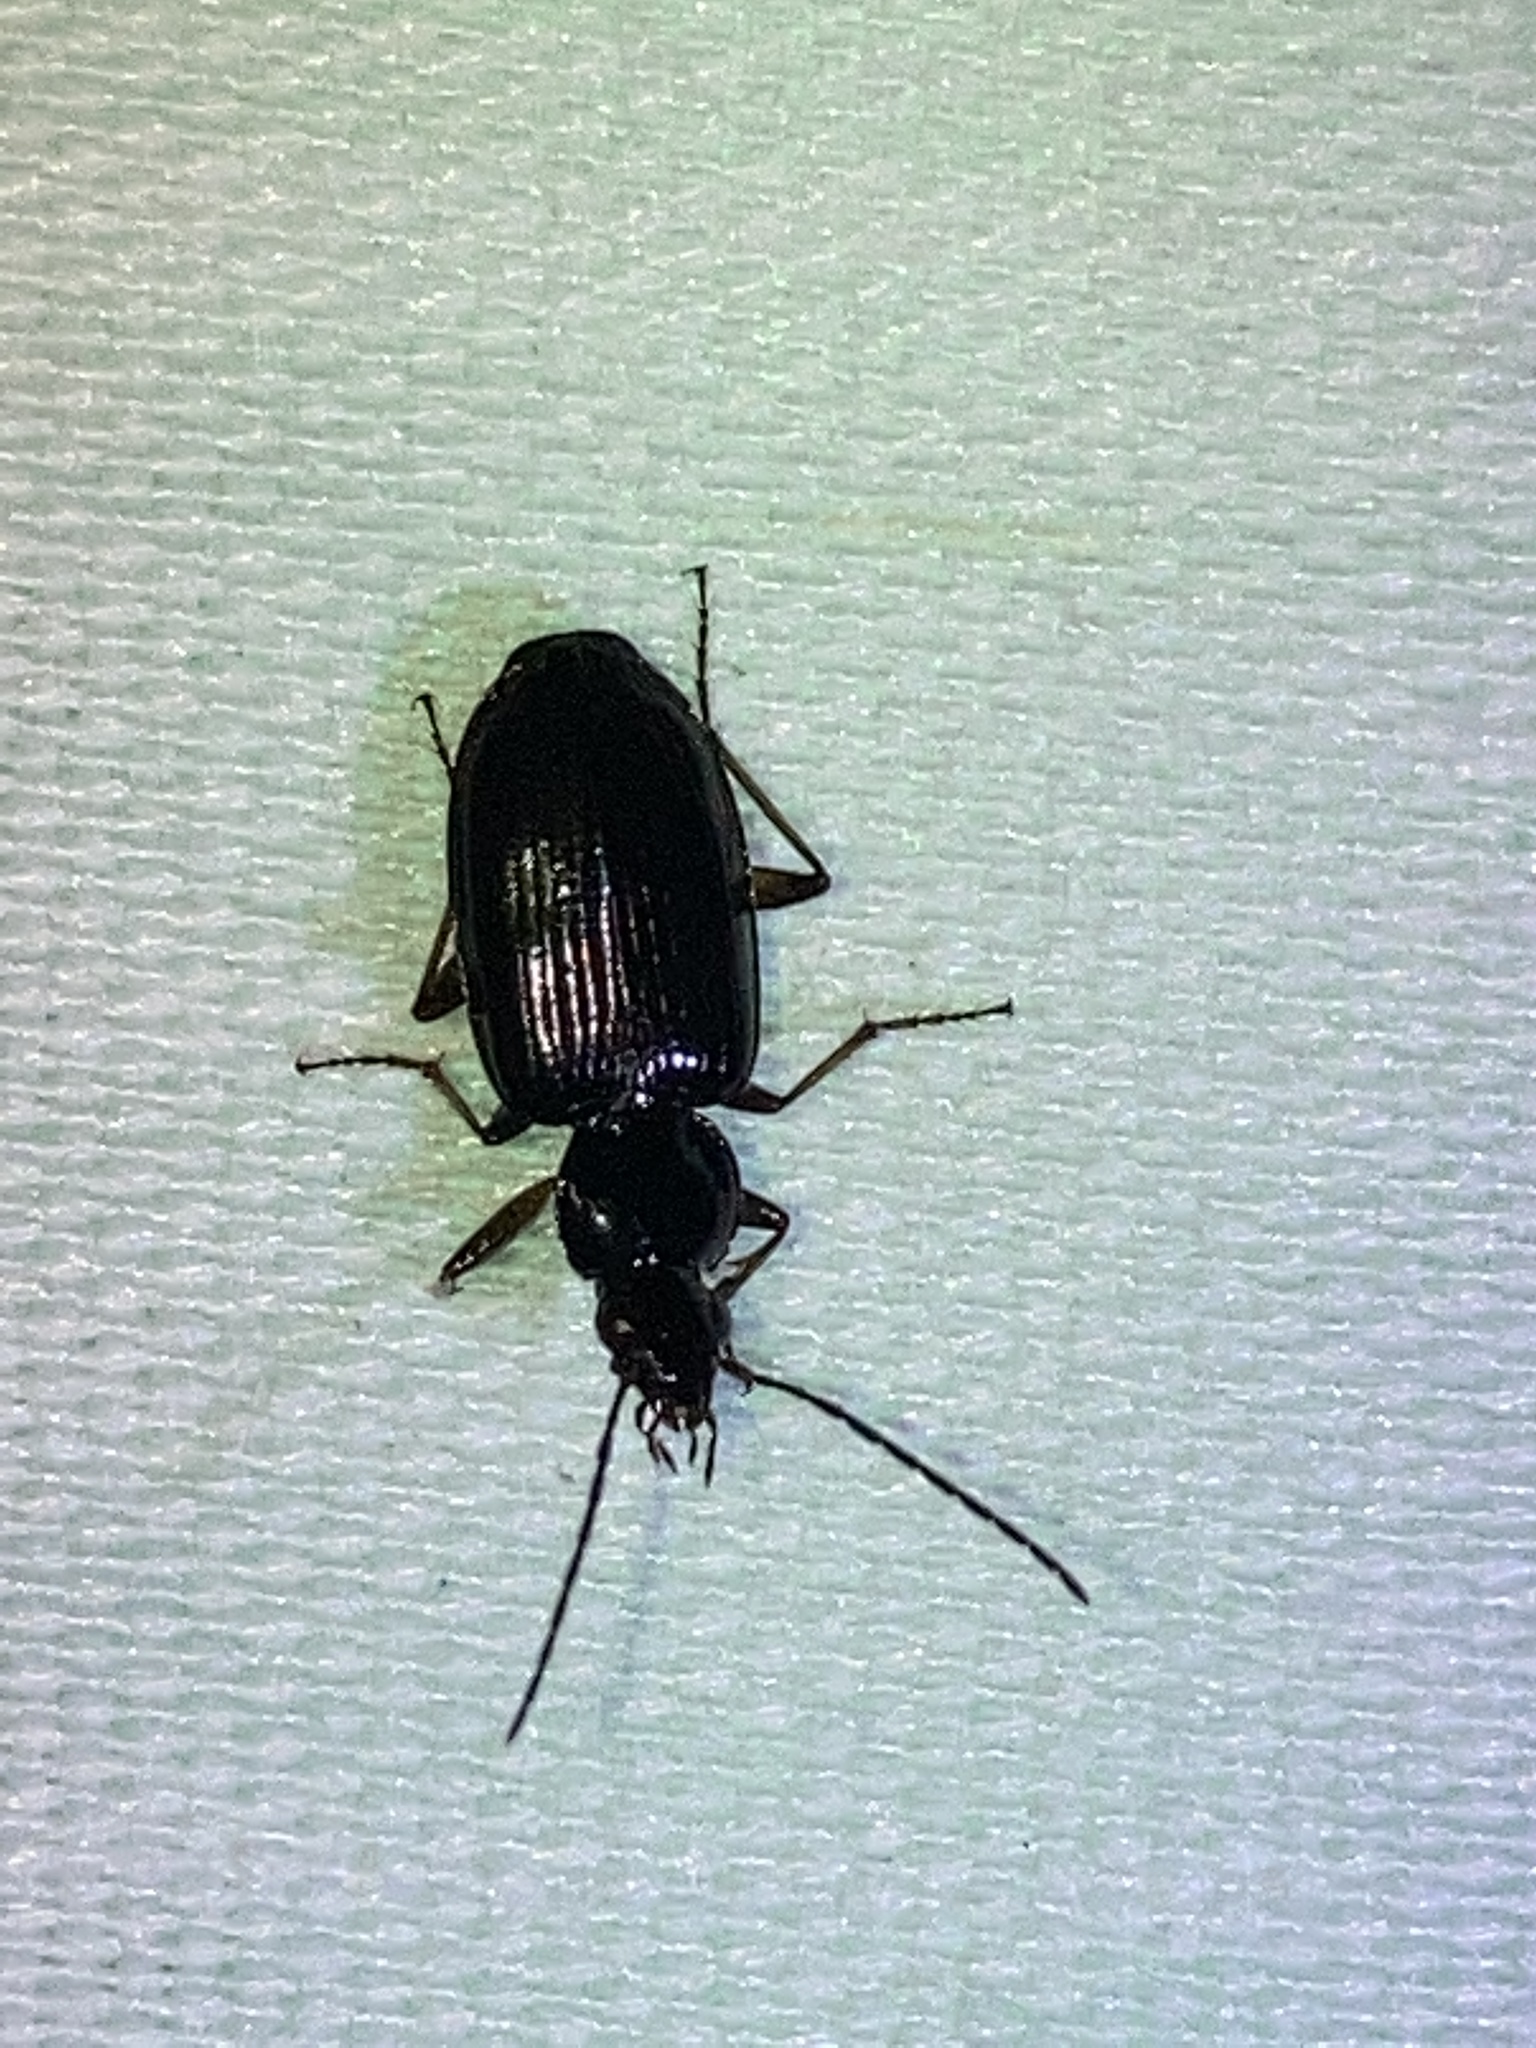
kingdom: Animalia
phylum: Arthropoda
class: Insecta
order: Coleoptera
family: Carabidae
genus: Agonum
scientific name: Agonum punctiforme
